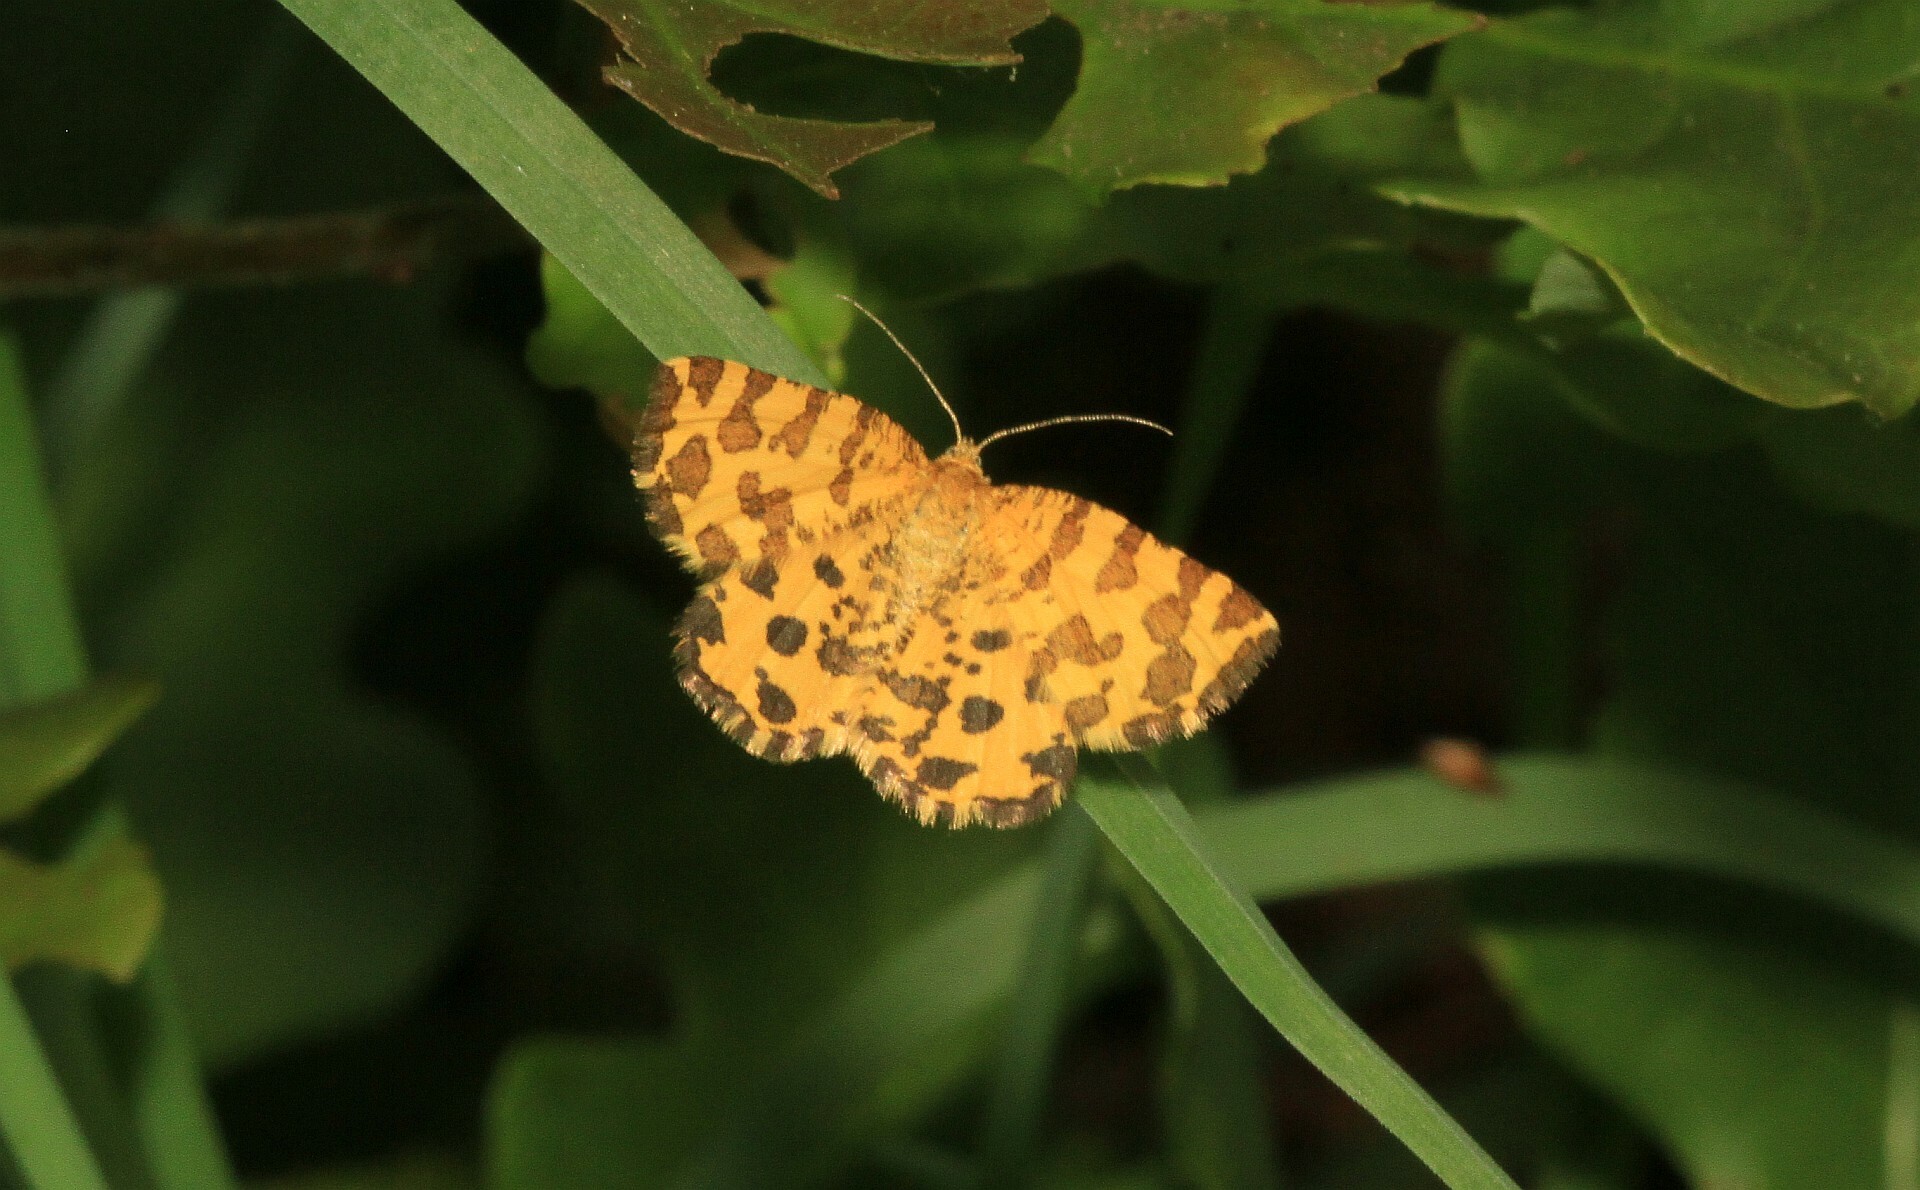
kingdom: Animalia
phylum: Arthropoda
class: Insecta
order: Lepidoptera
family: Geometridae
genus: Pseudopanthera
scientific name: Pseudopanthera macularia
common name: Speckled yellow
